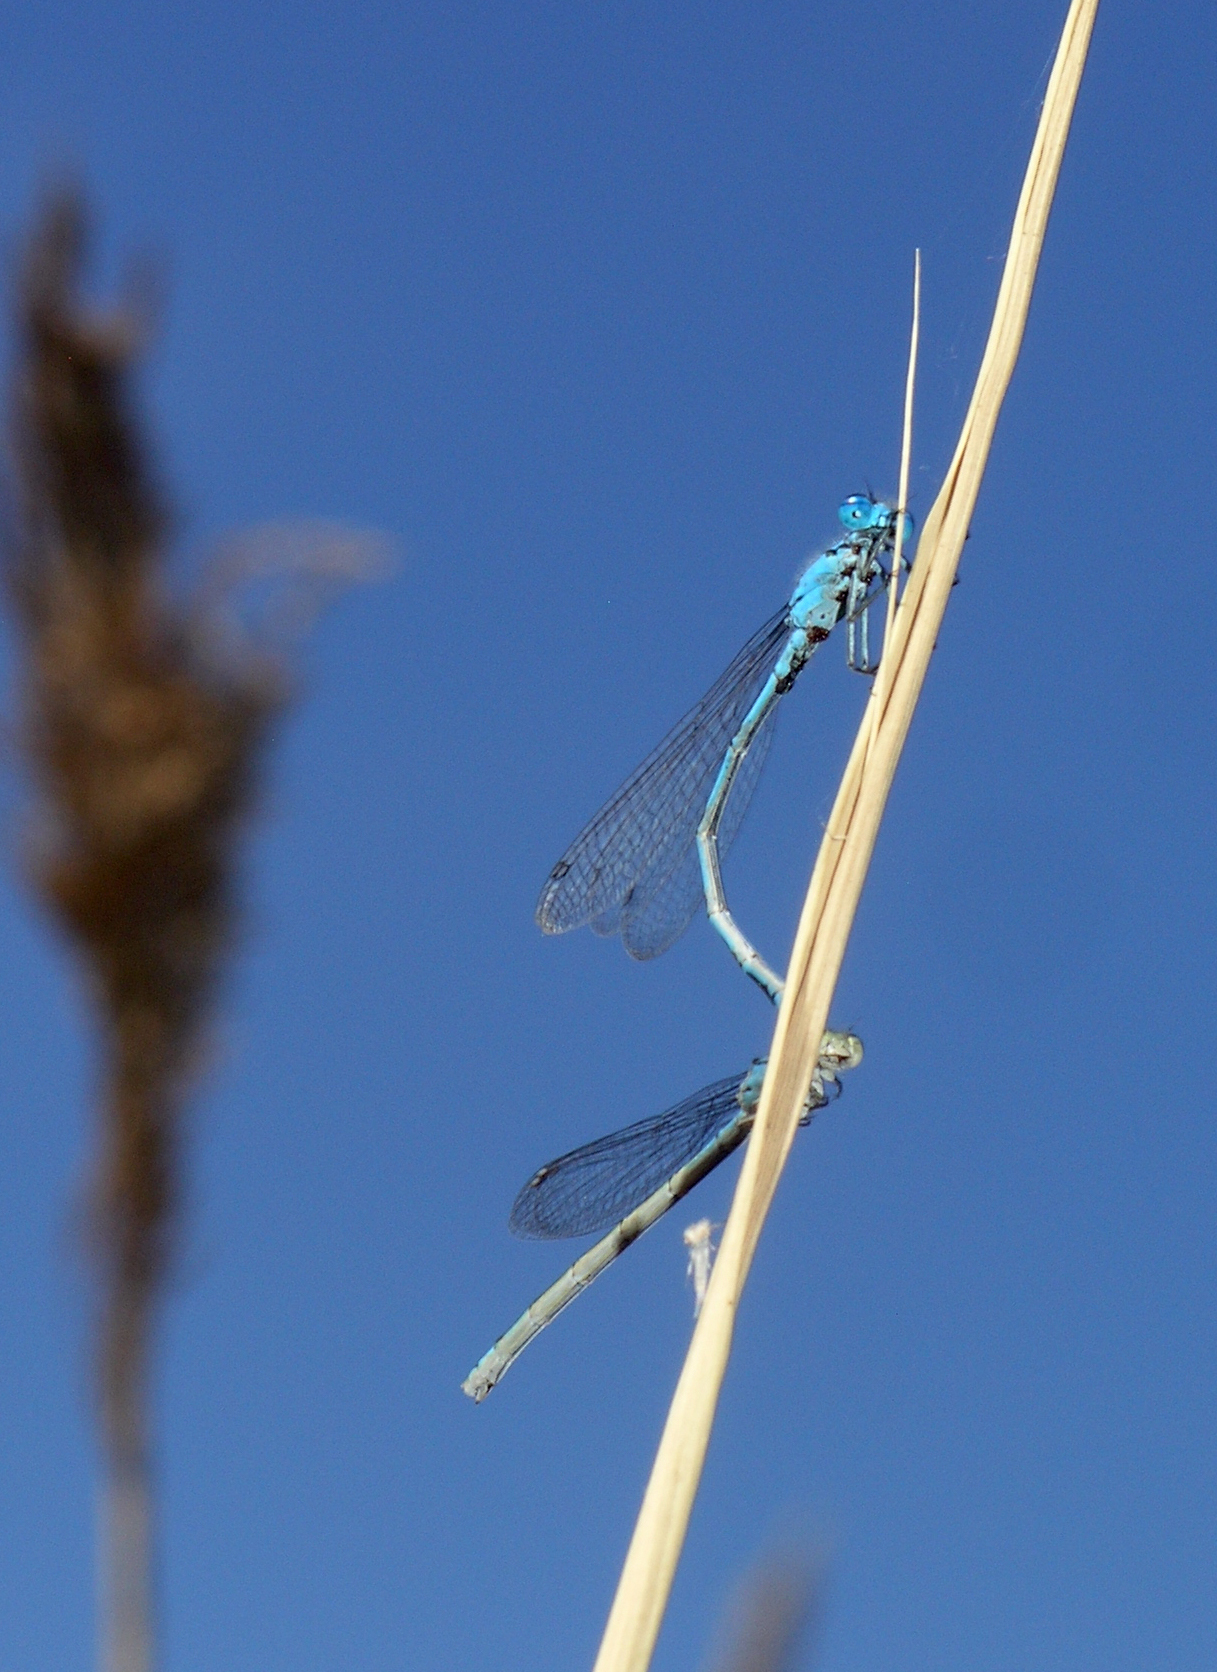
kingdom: Animalia
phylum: Arthropoda
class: Insecta
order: Odonata
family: Coenagrionidae
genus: Enallagma
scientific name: Enallagma cyathigerum
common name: Common blue damselfly
